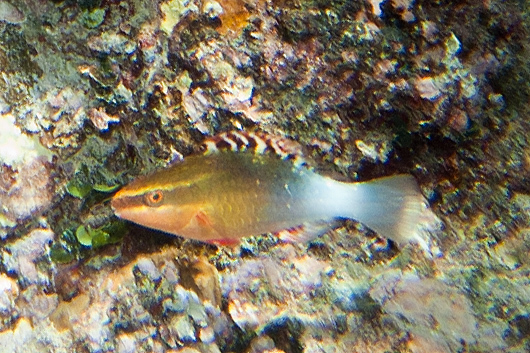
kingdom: Animalia
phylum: Chordata
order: Perciformes
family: Scaridae
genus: Scarus
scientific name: Scarus frenatus
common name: Bridled parrotfish
